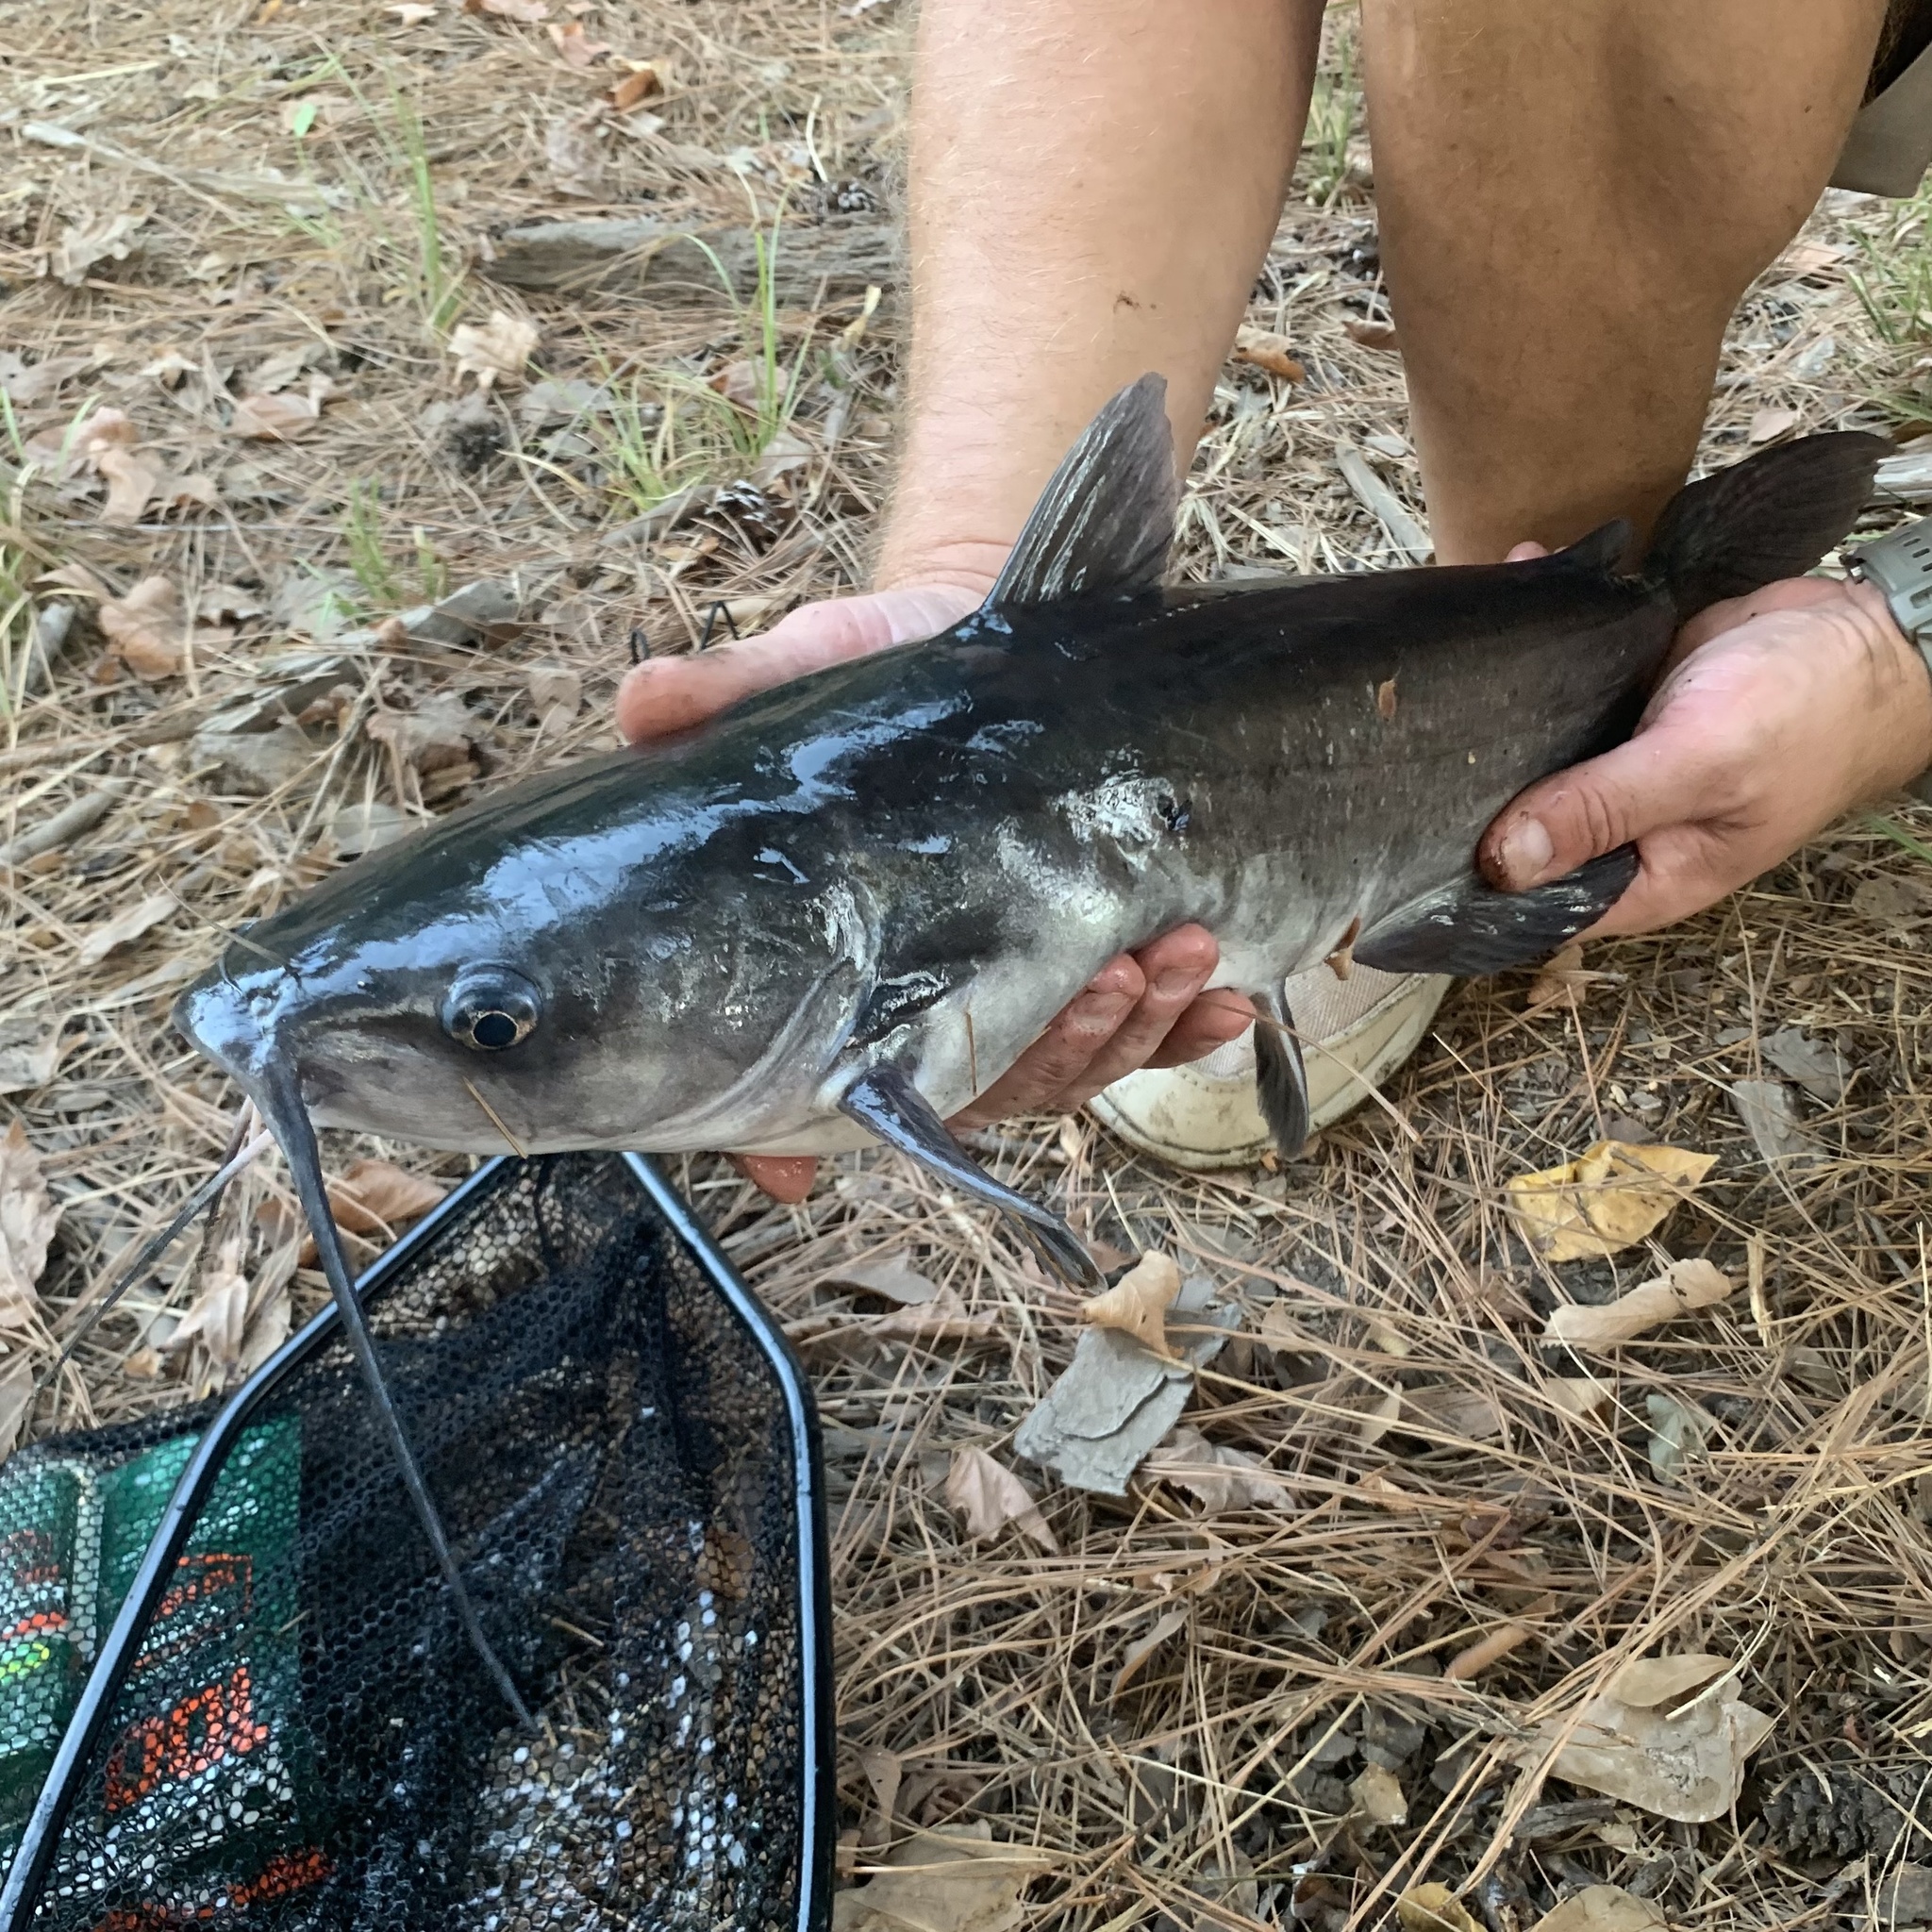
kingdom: Animalia
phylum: Chordata
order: Siluriformes
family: Ictaluridae
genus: Ictalurus
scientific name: Ictalurus punctatus
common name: Channel catfish
